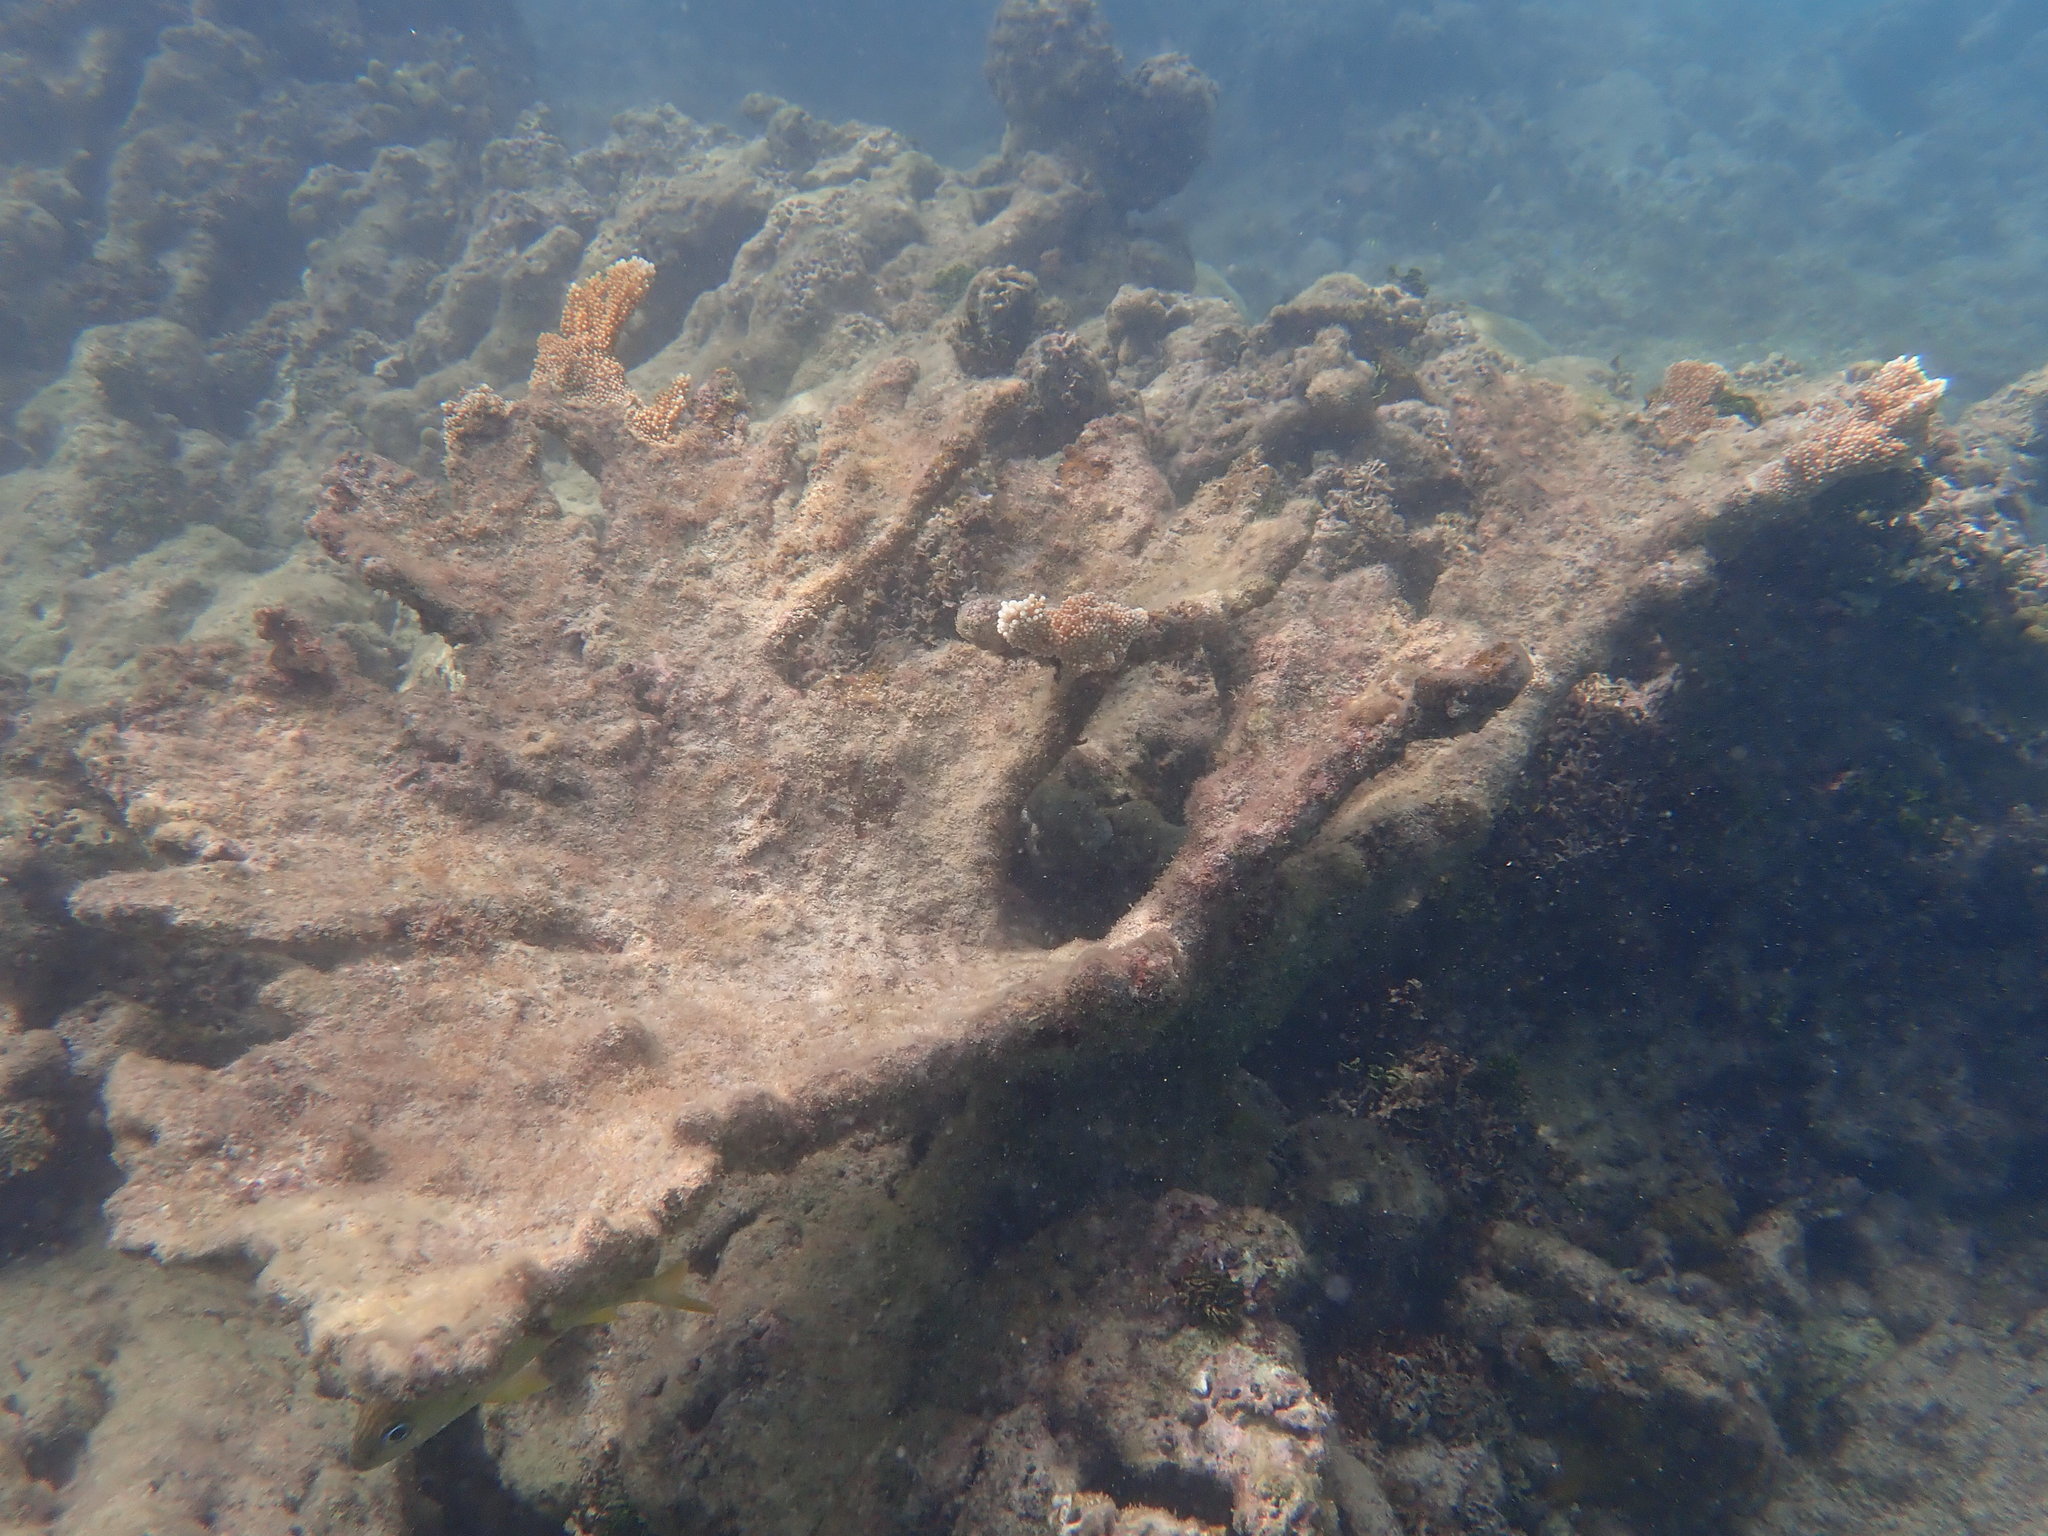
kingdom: Animalia
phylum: Cnidaria
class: Anthozoa
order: Scleractinia
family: Acroporidae
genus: Acropora
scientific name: Acropora palmata
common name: Elkhorn coral
